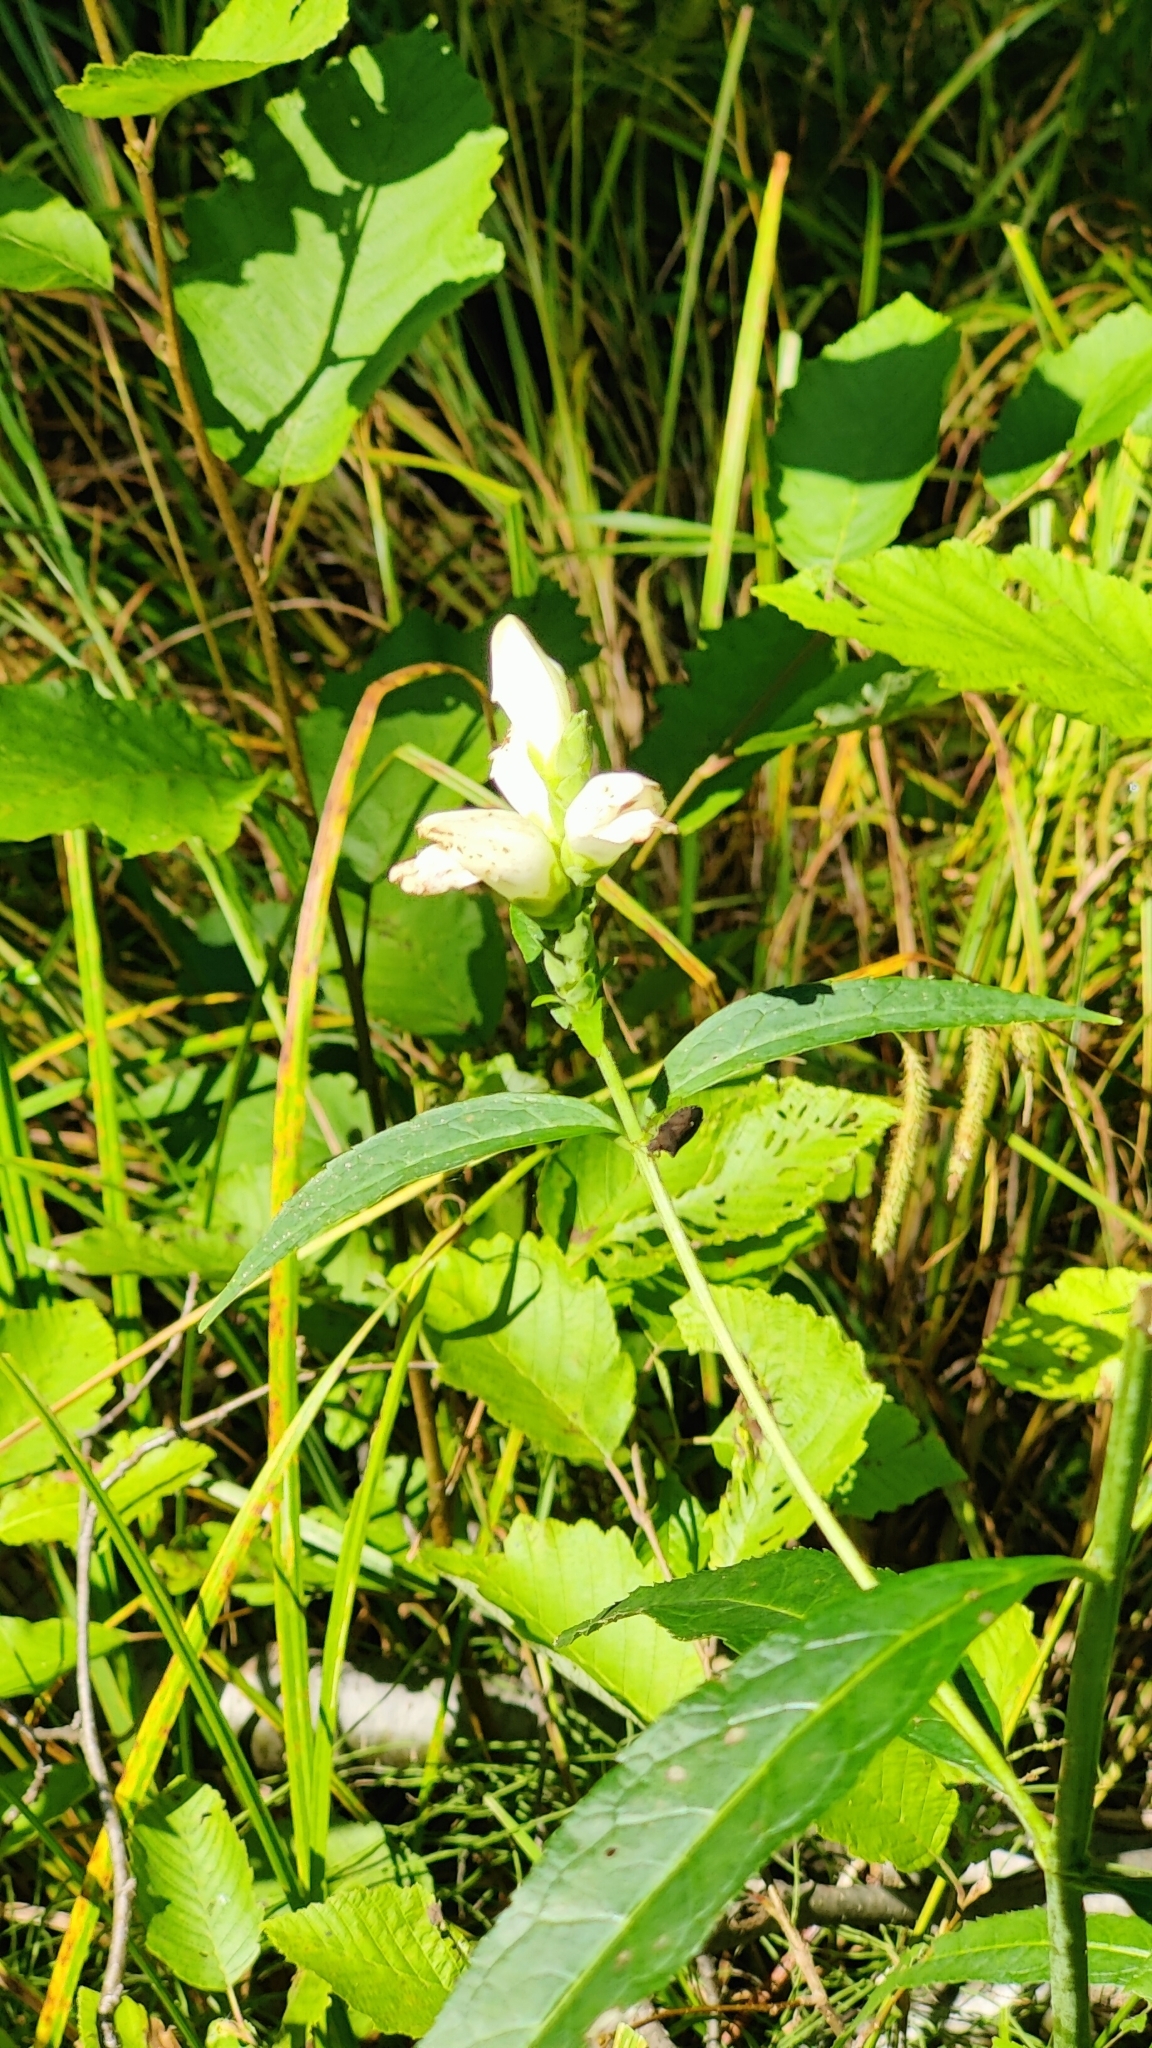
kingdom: Plantae
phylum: Tracheophyta
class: Magnoliopsida
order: Lamiales
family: Plantaginaceae
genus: Chelone
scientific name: Chelone glabra
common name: Snakehead
